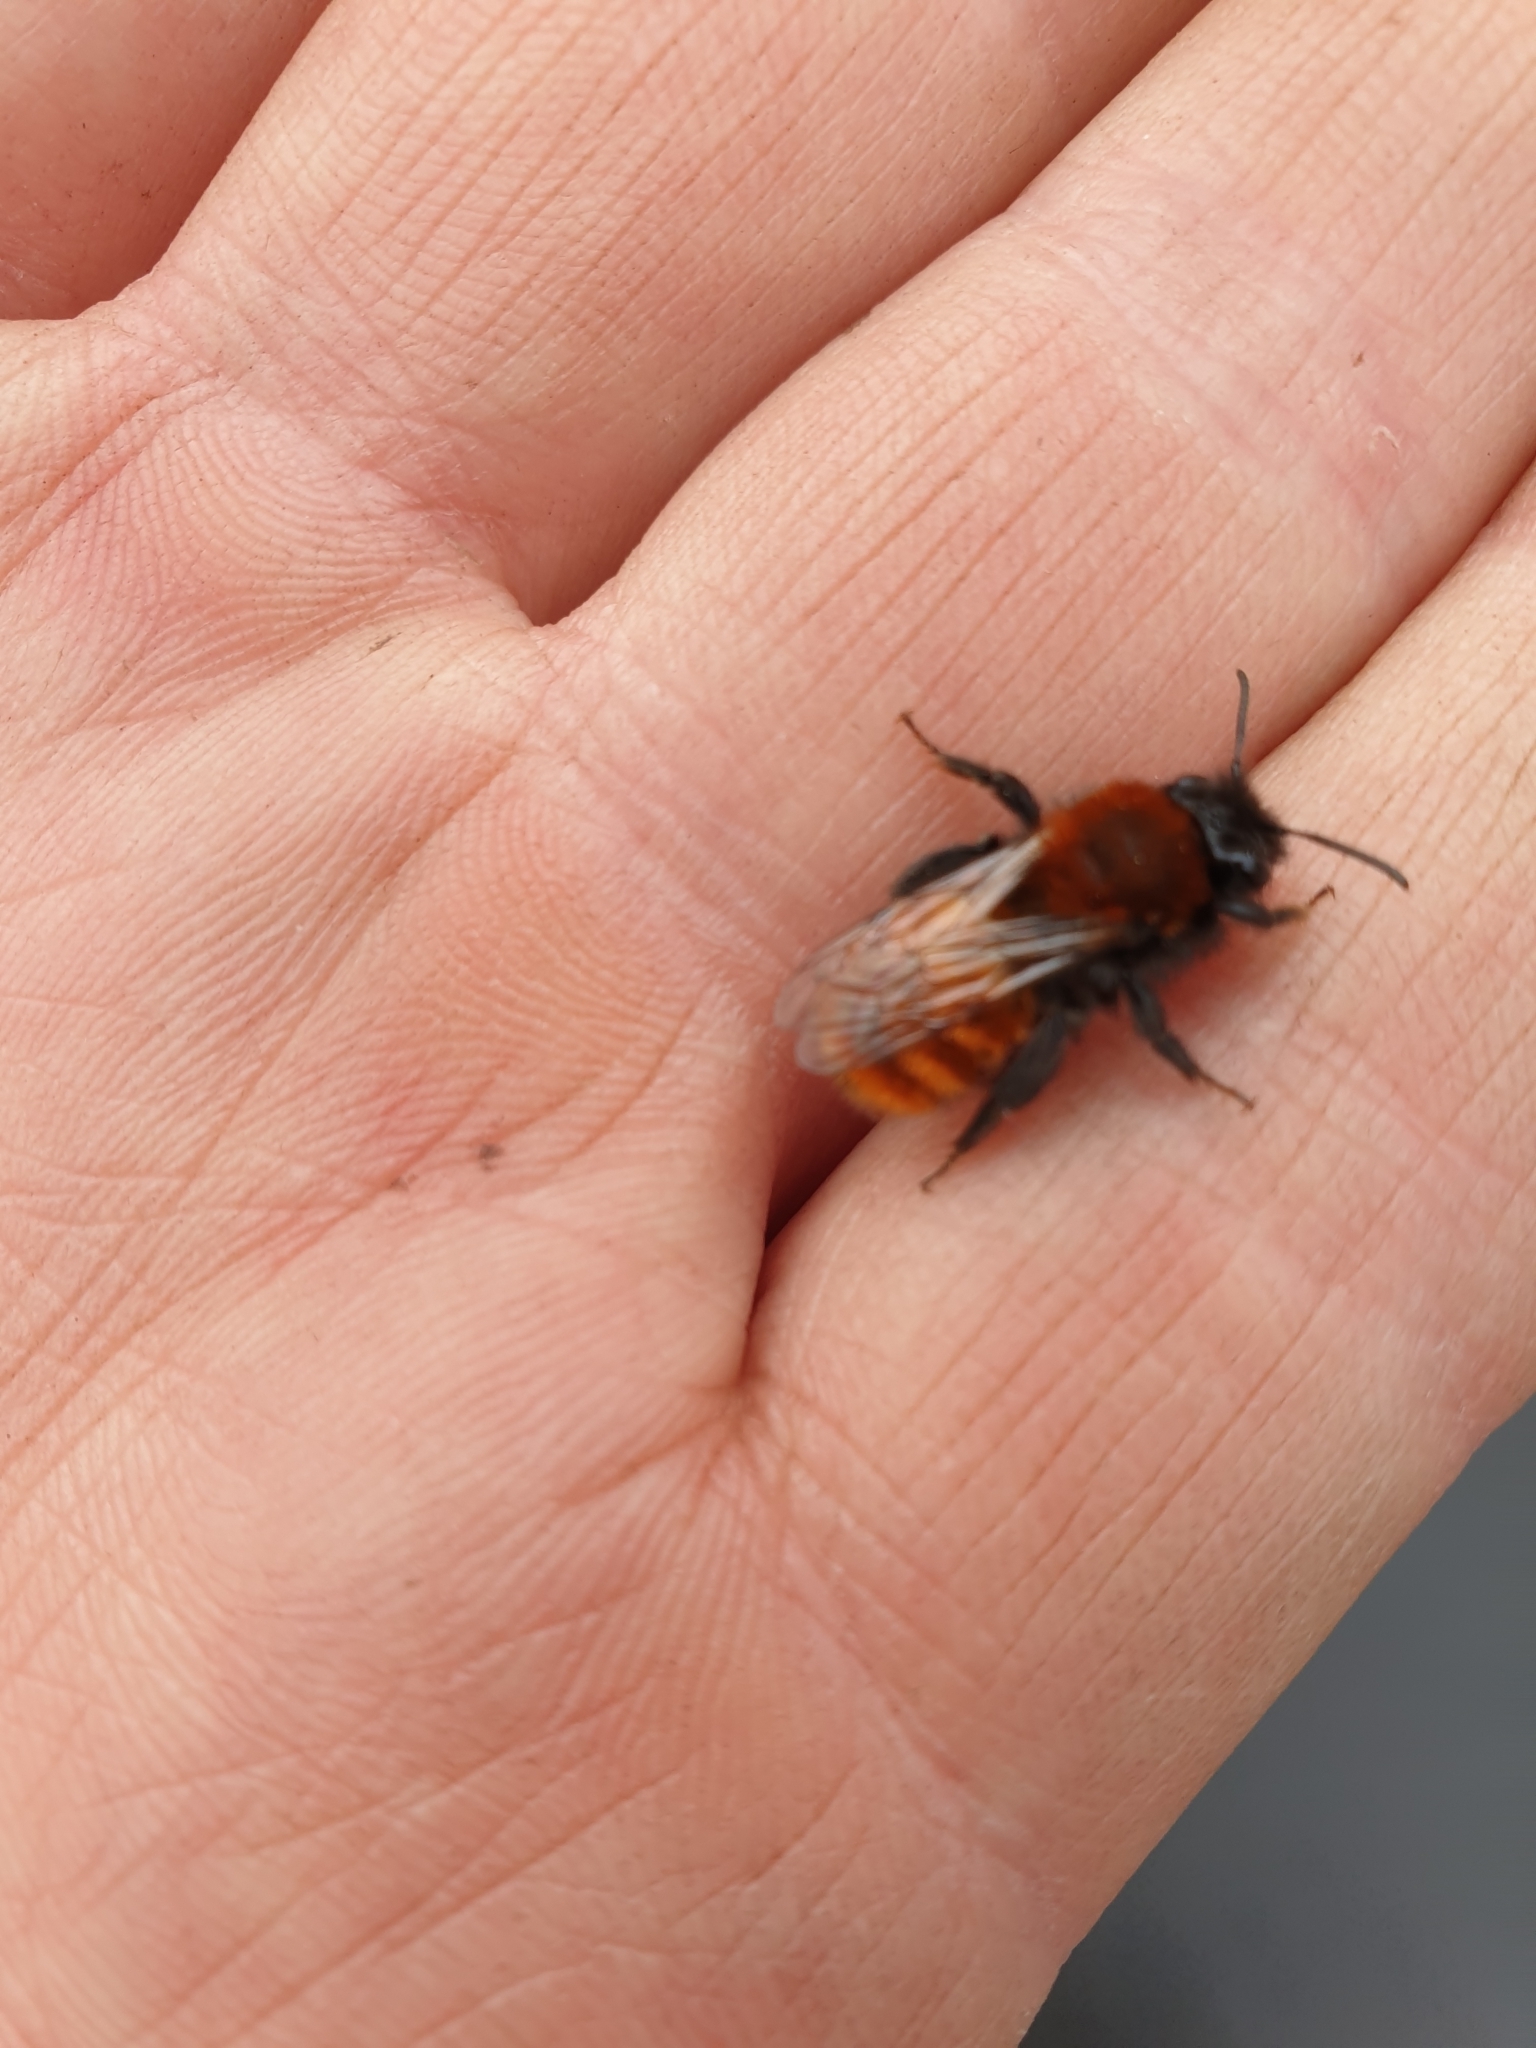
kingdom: Animalia
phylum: Arthropoda
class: Insecta
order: Hymenoptera
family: Andrenidae
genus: Andrena
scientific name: Andrena fulva
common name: Tawny mining bee
